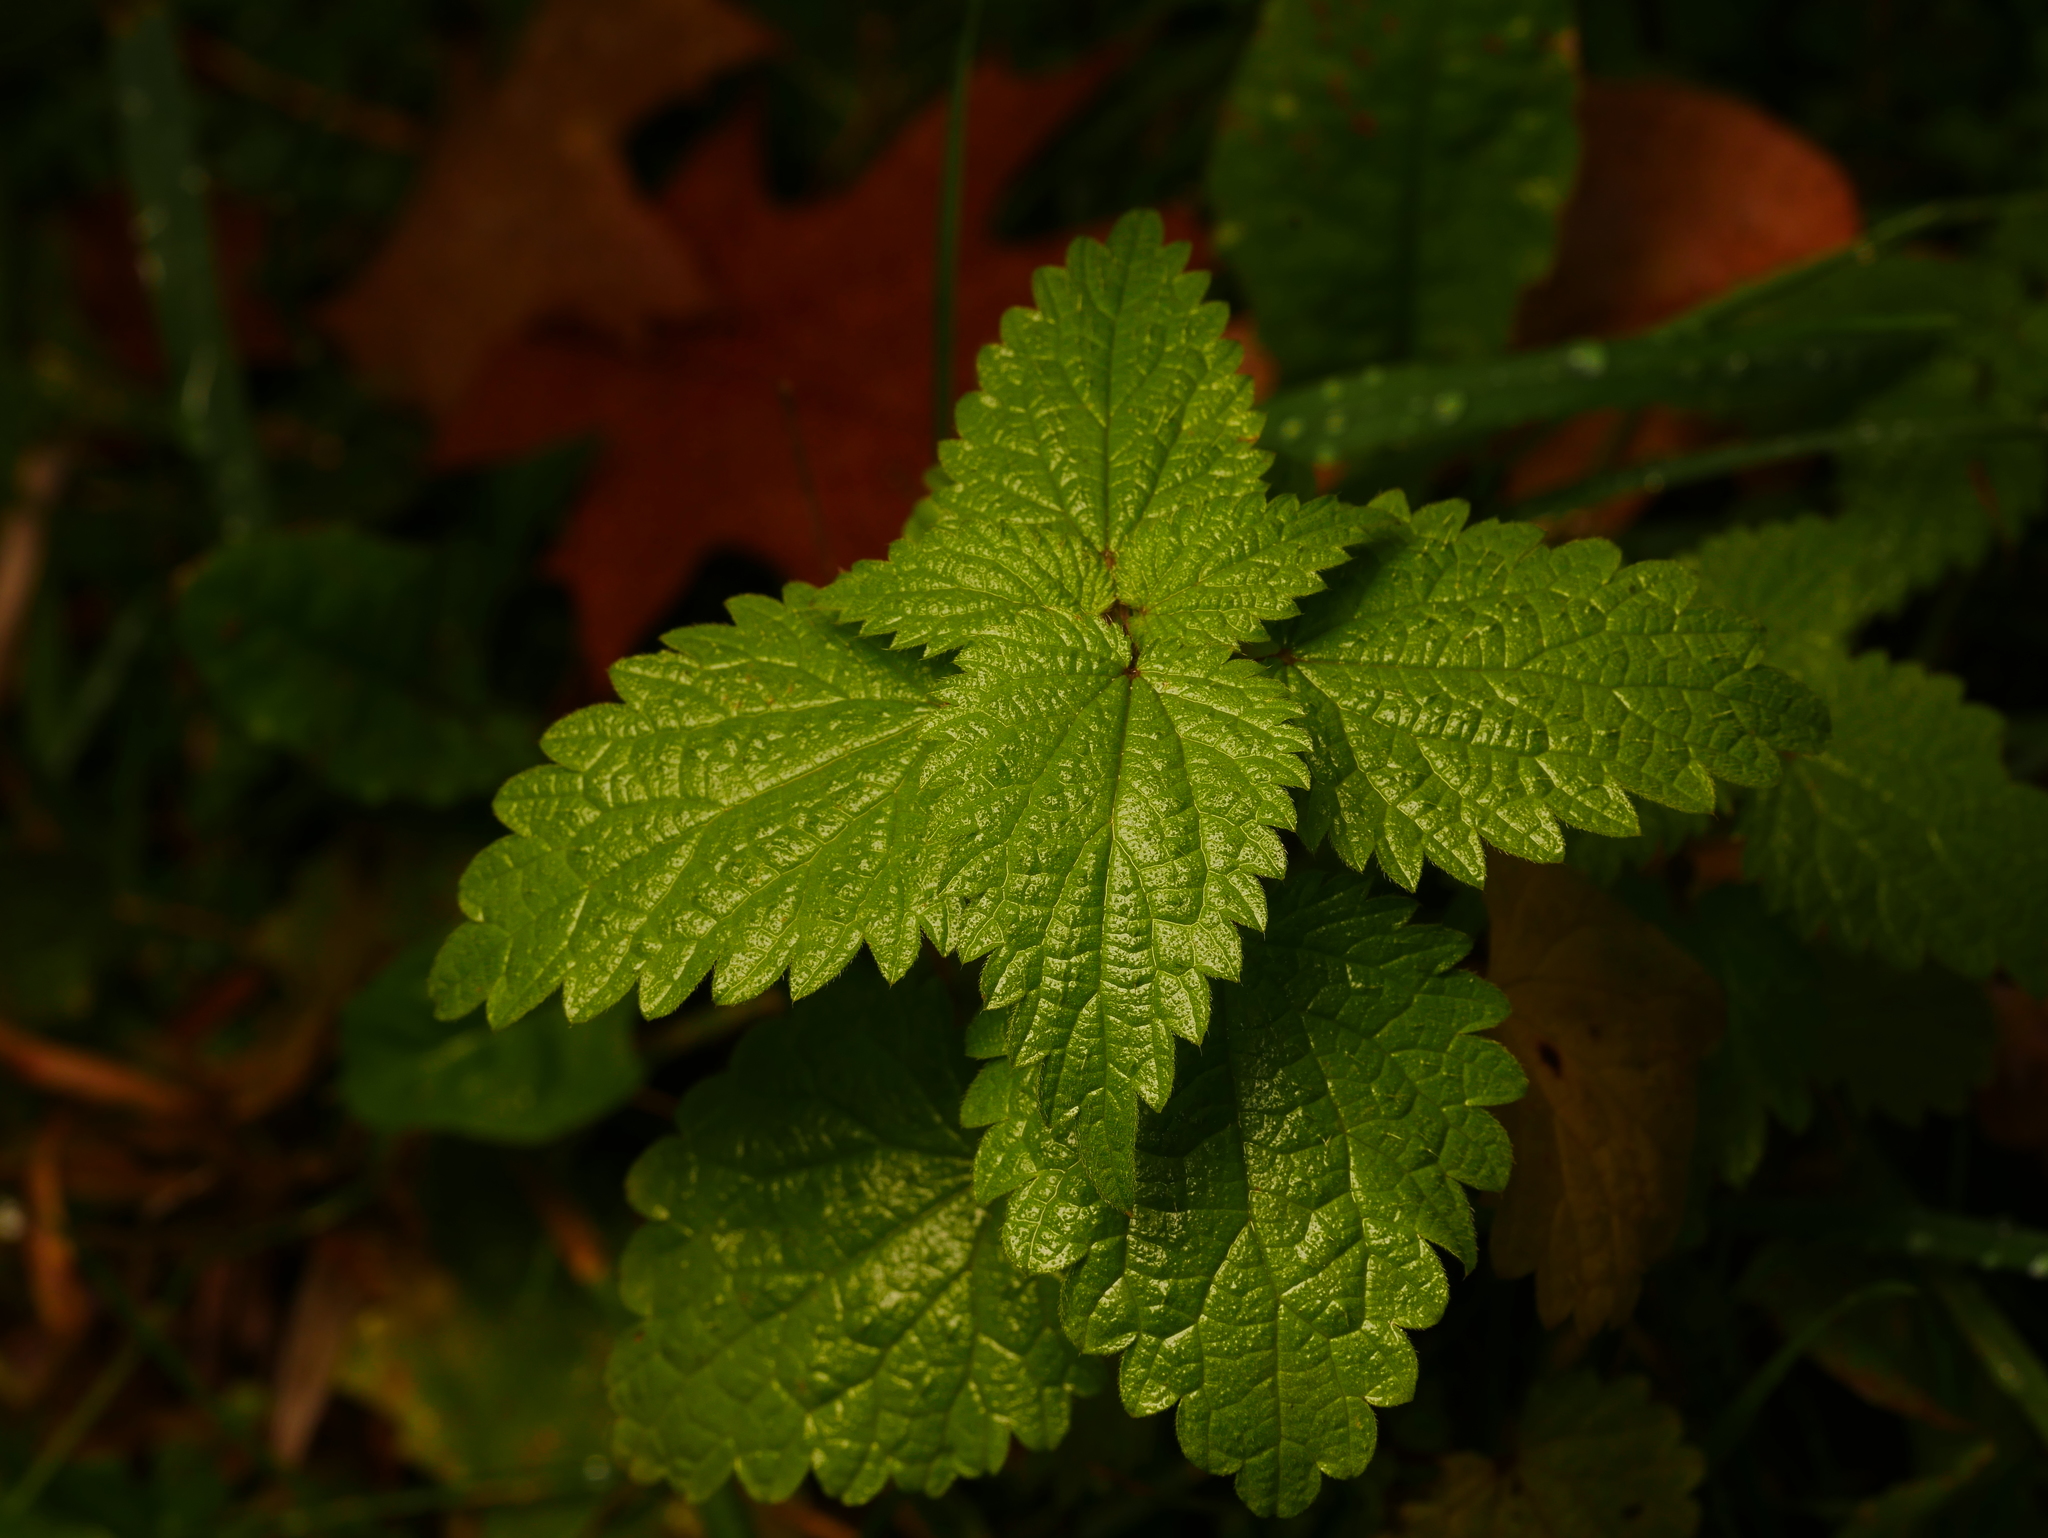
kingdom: Plantae
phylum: Tracheophyta
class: Magnoliopsida
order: Rosales
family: Urticaceae
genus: Urtica
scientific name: Urtica dioica
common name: Common nettle
